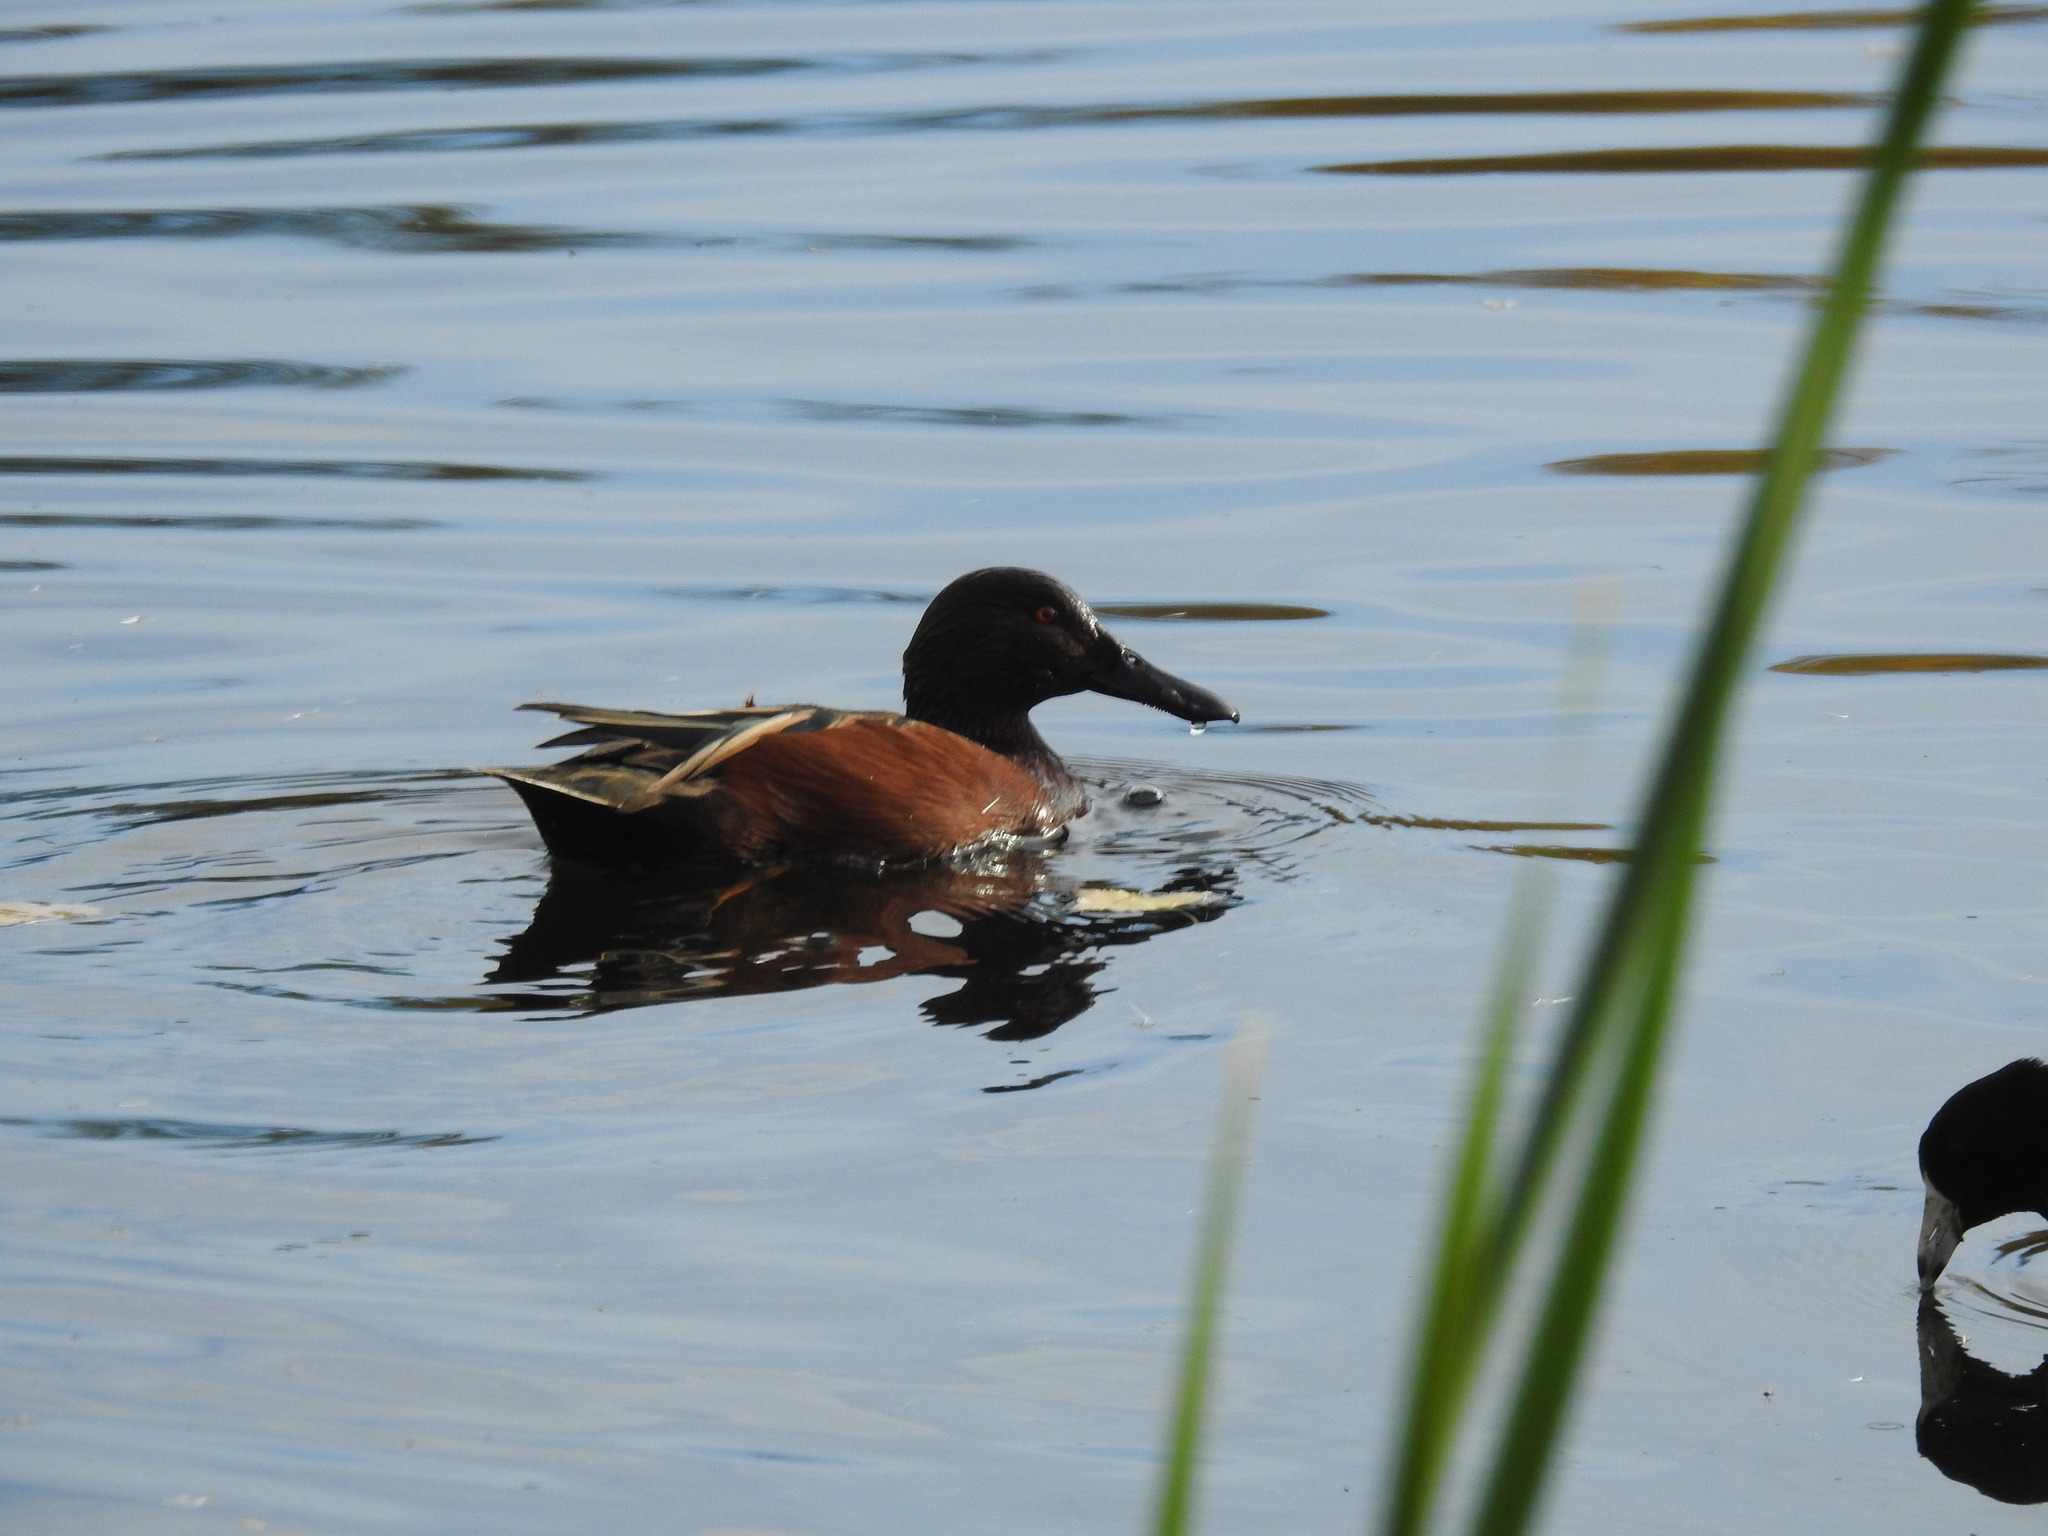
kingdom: Animalia
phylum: Chordata
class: Aves
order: Anseriformes
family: Anatidae
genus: Spatula
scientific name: Spatula cyanoptera
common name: Cinnamon teal
